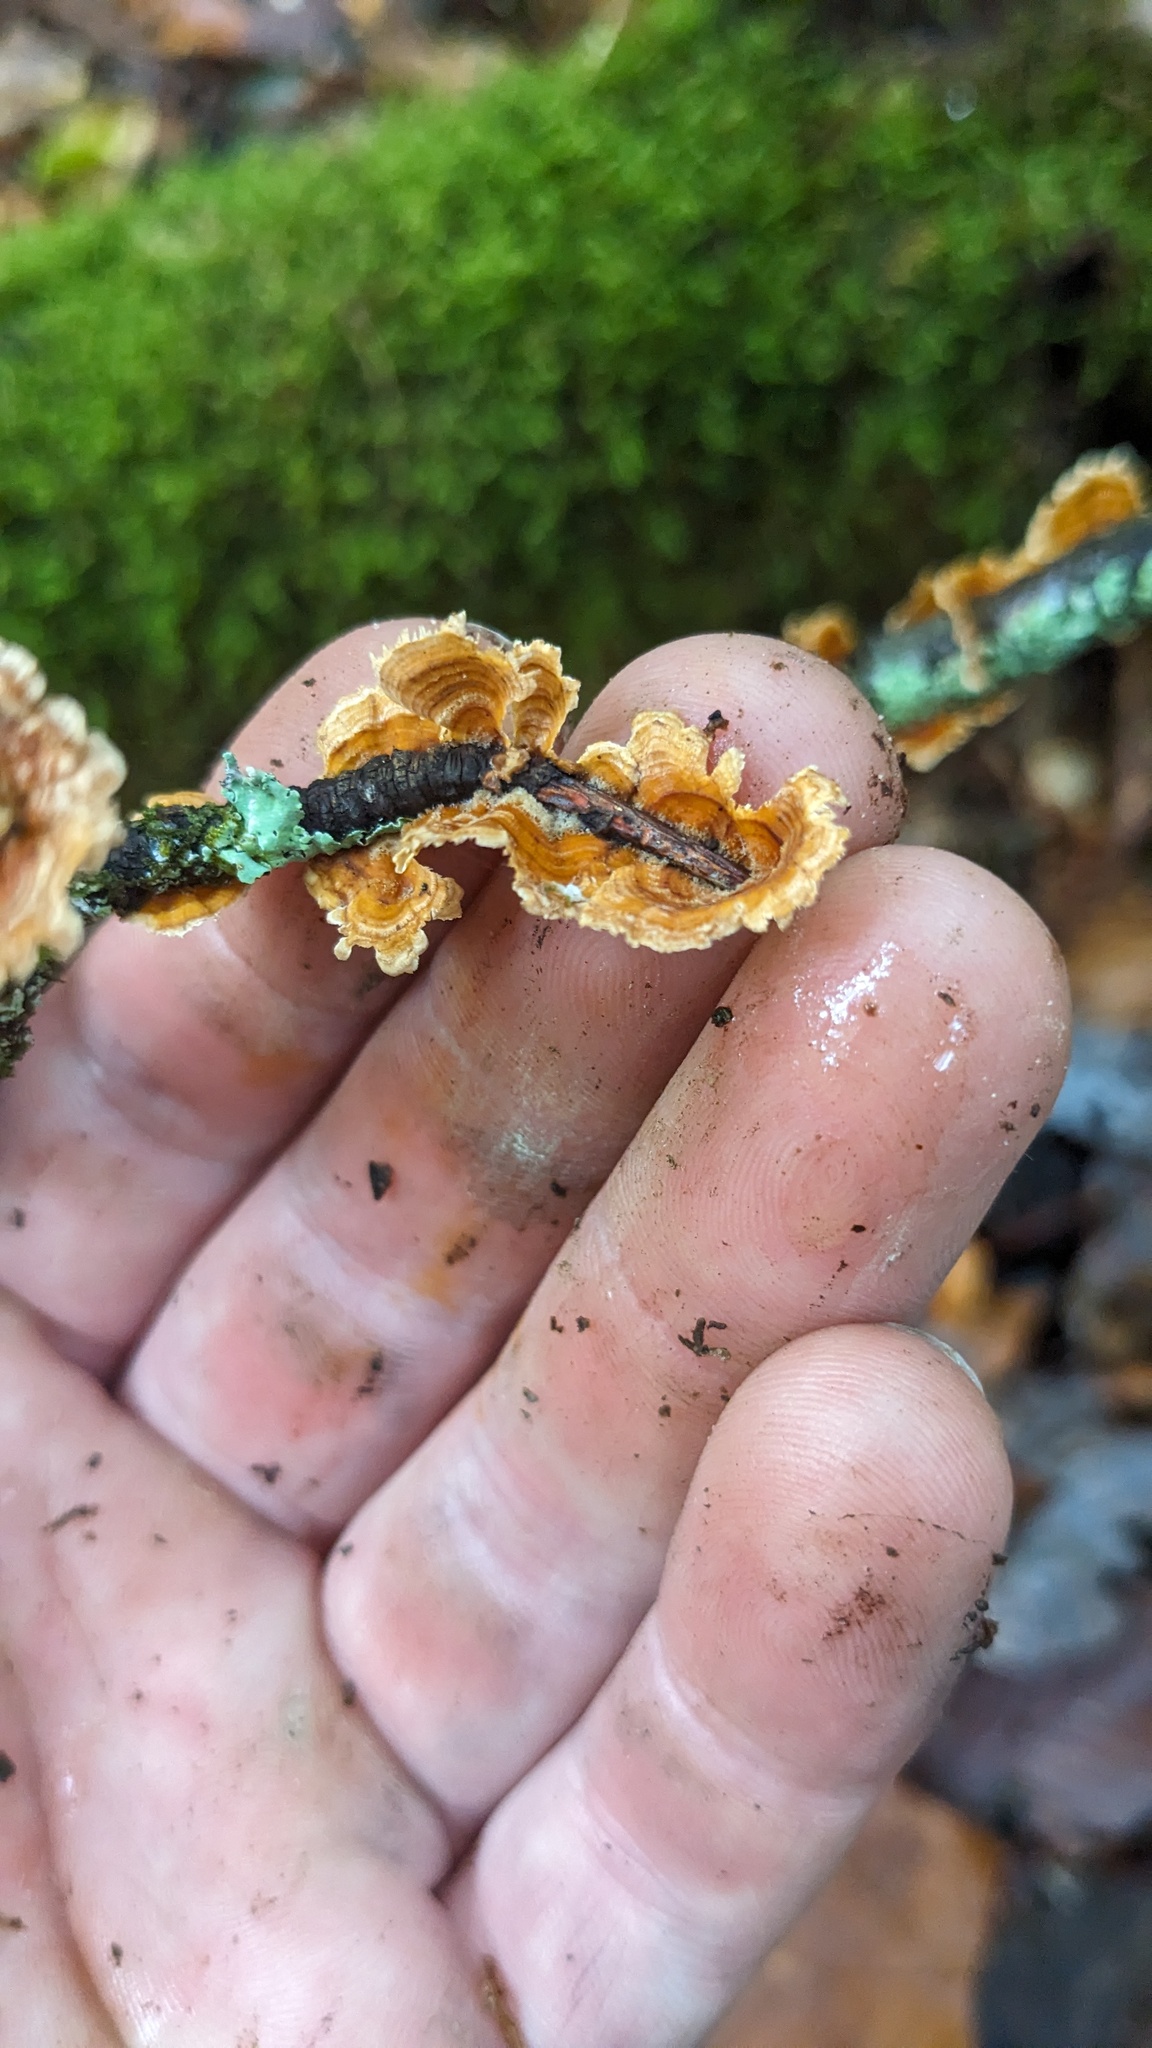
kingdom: Fungi
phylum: Basidiomycota
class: Agaricomycetes
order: Russulales
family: Stereaceae
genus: Stereum
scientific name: Stereum complicatum
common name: Crowded parchment
